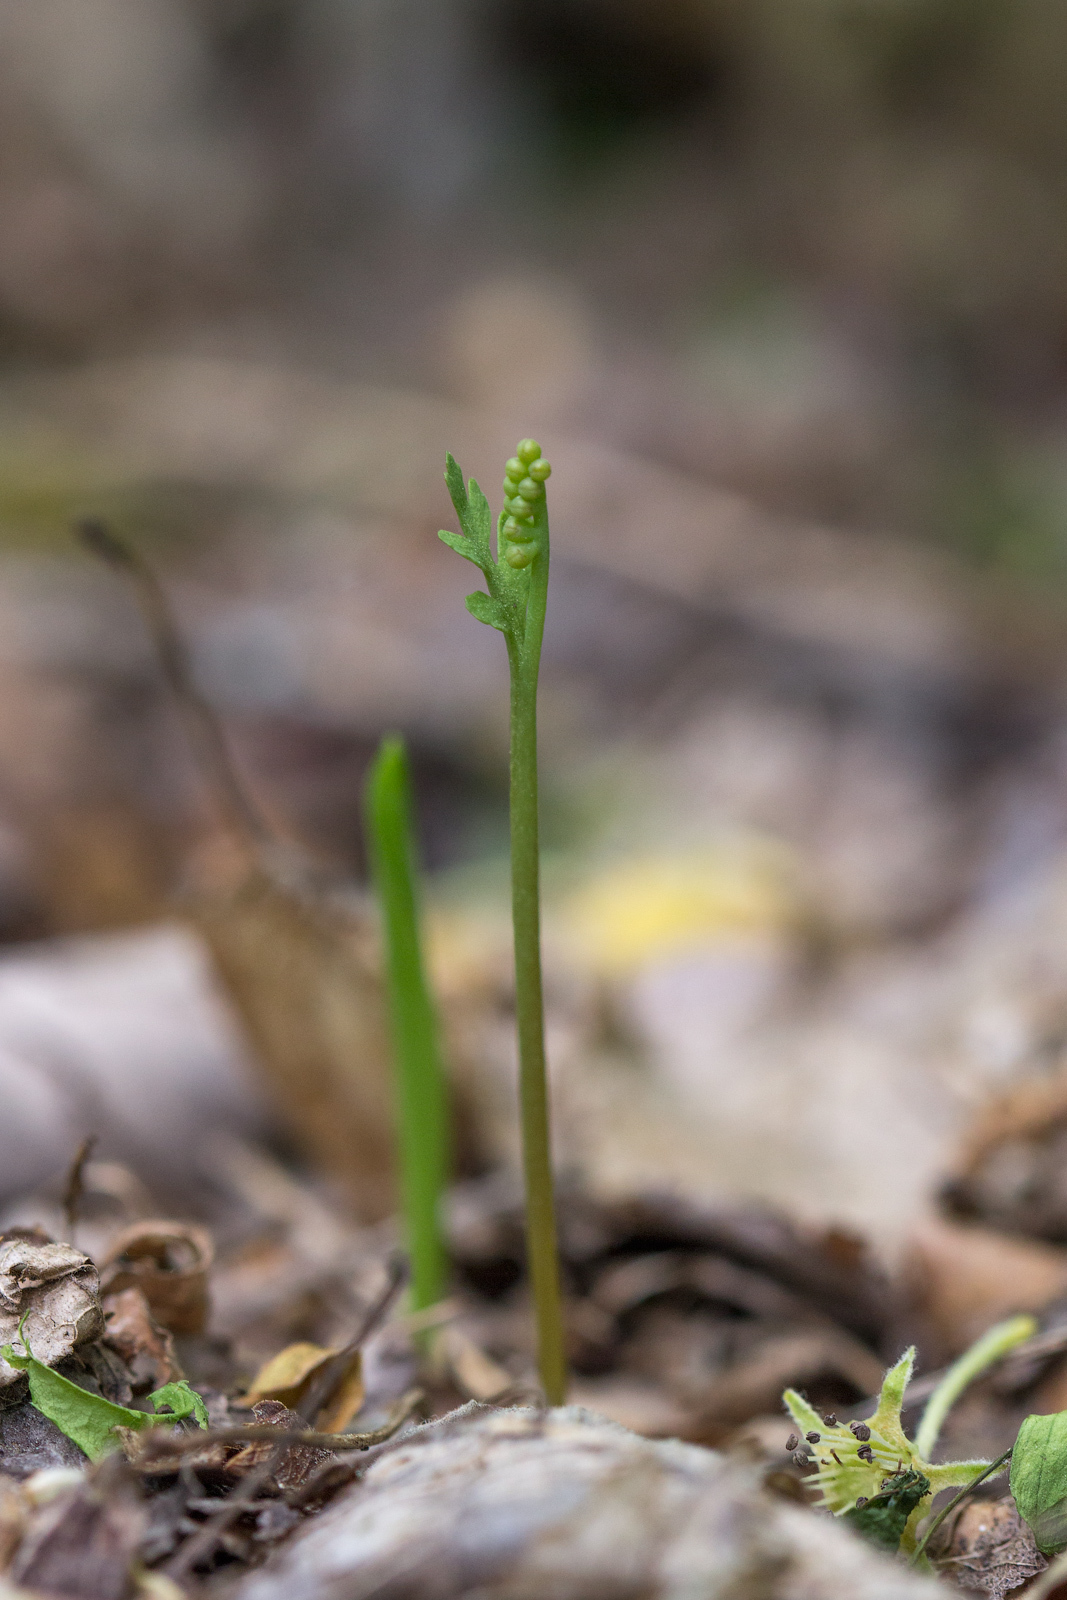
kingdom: Plantae
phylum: Tracheophyta
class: Polypodiopsida
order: Ophioglossales
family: Ophioglossaceae
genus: Botrychium
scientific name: Botrychium matricariifolium
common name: Branched moonwort
